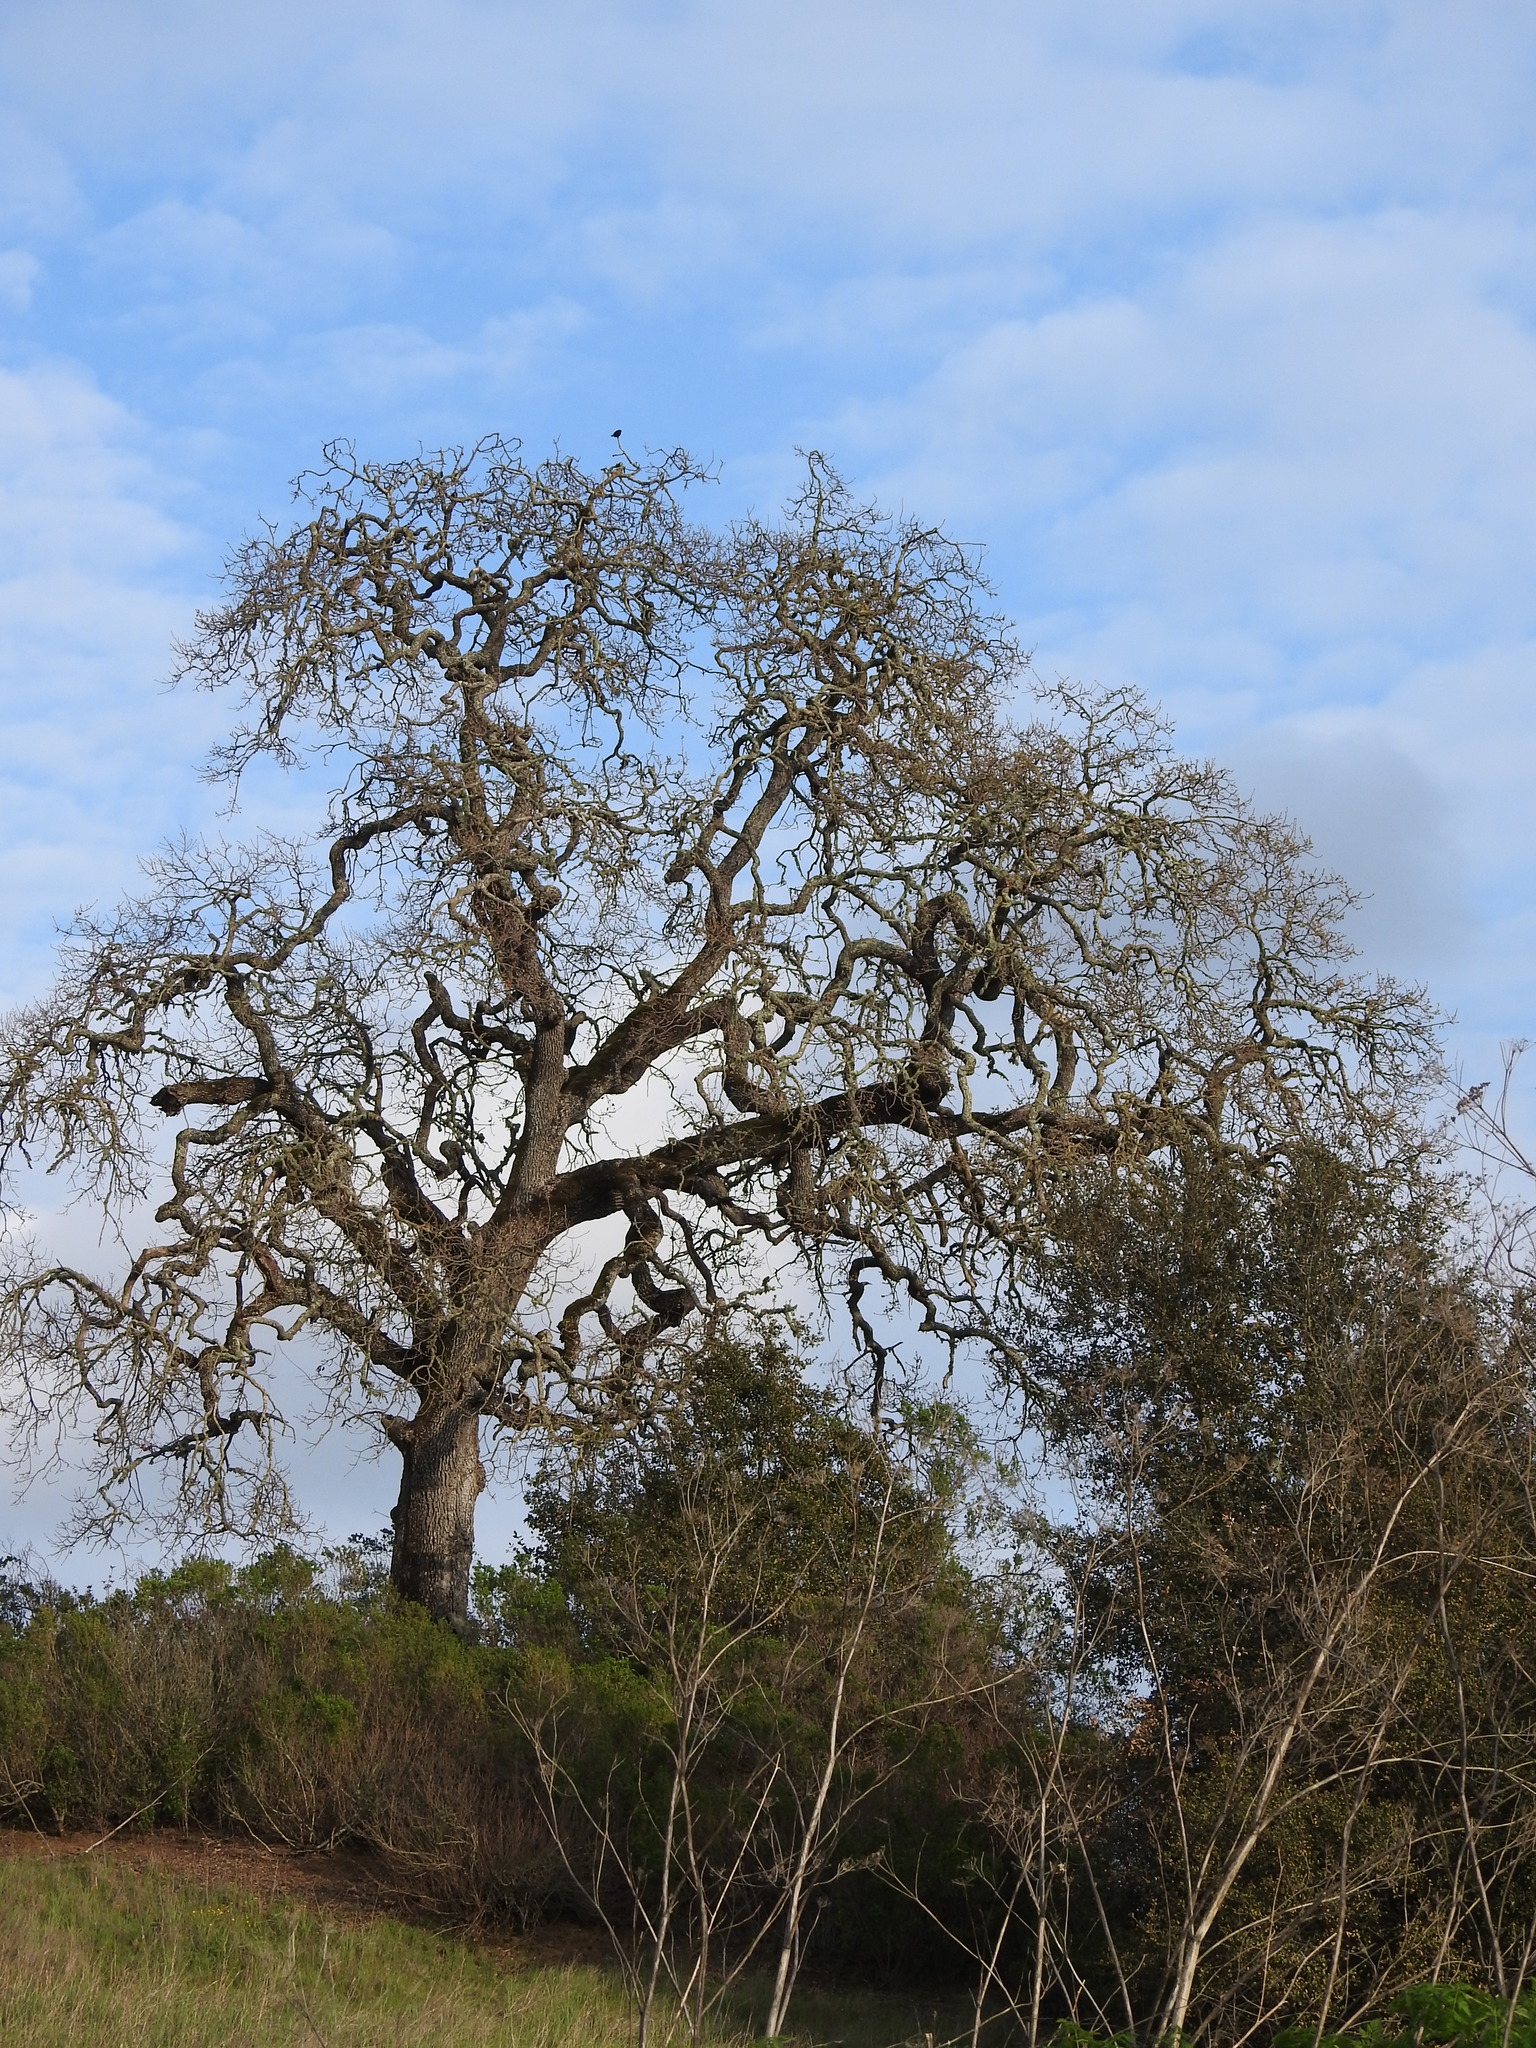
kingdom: Animalia
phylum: Chordata
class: Aves
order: Passeriformes
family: Icteridae
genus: Agelaius
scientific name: Agelaius phoeniceus
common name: Red-winged blackbird
